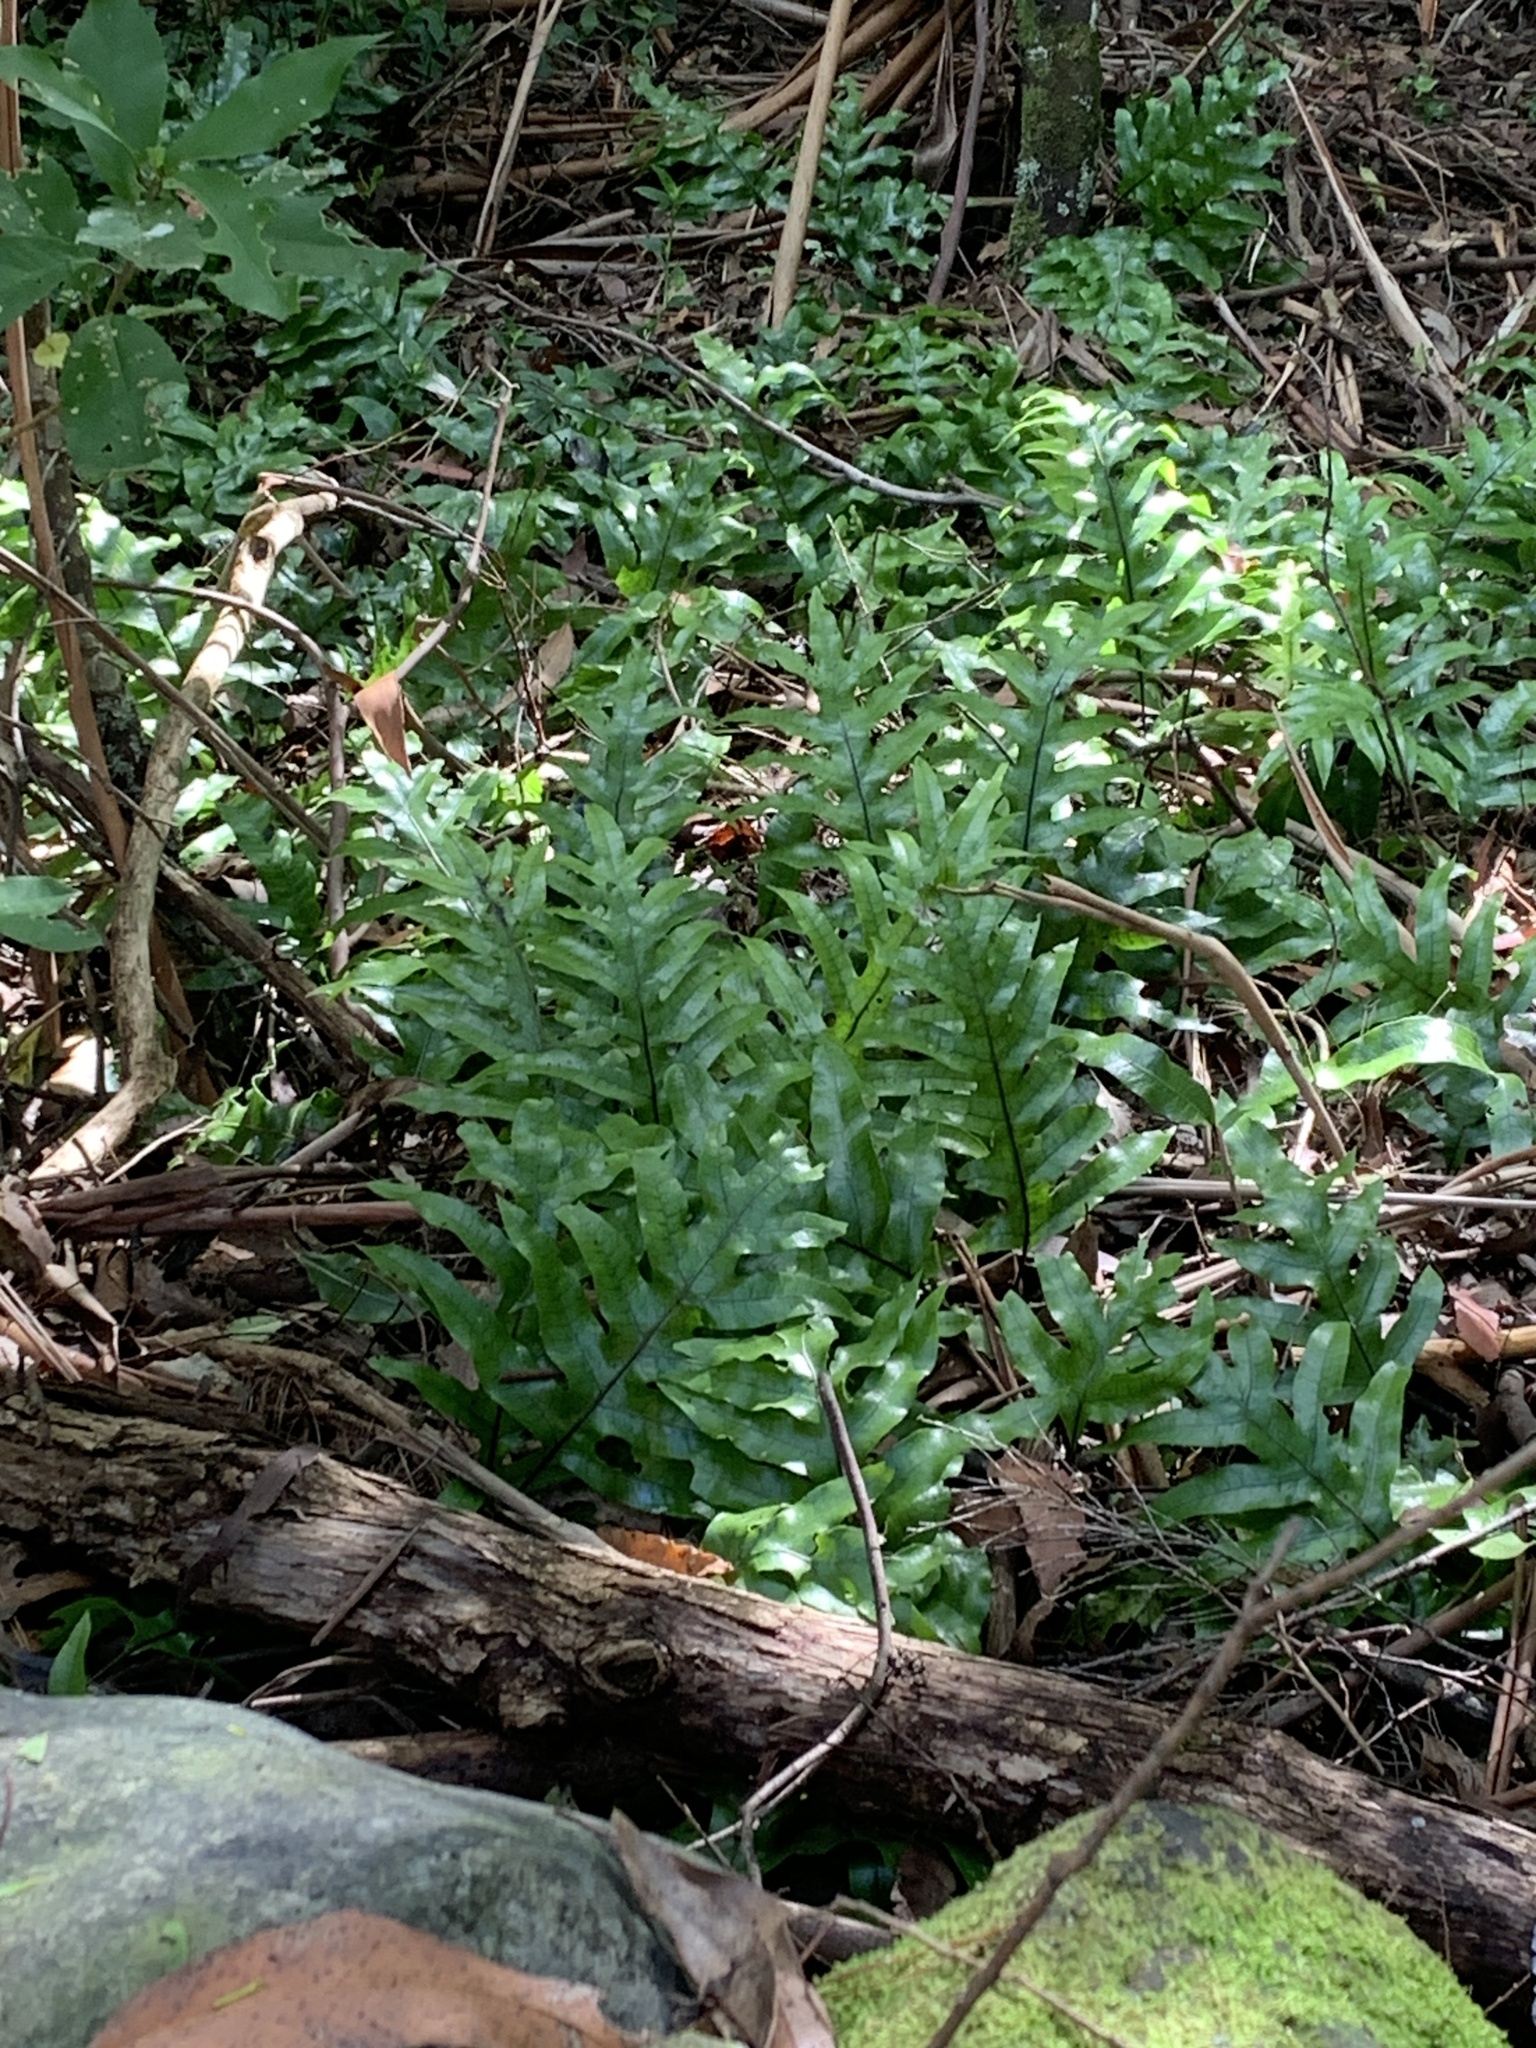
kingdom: Plantae
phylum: Tracheophyta
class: Polypodiopsida
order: Polypodiales
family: Polypodiaceae
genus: Lecanopteris
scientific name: Lecanopteris pustulata
